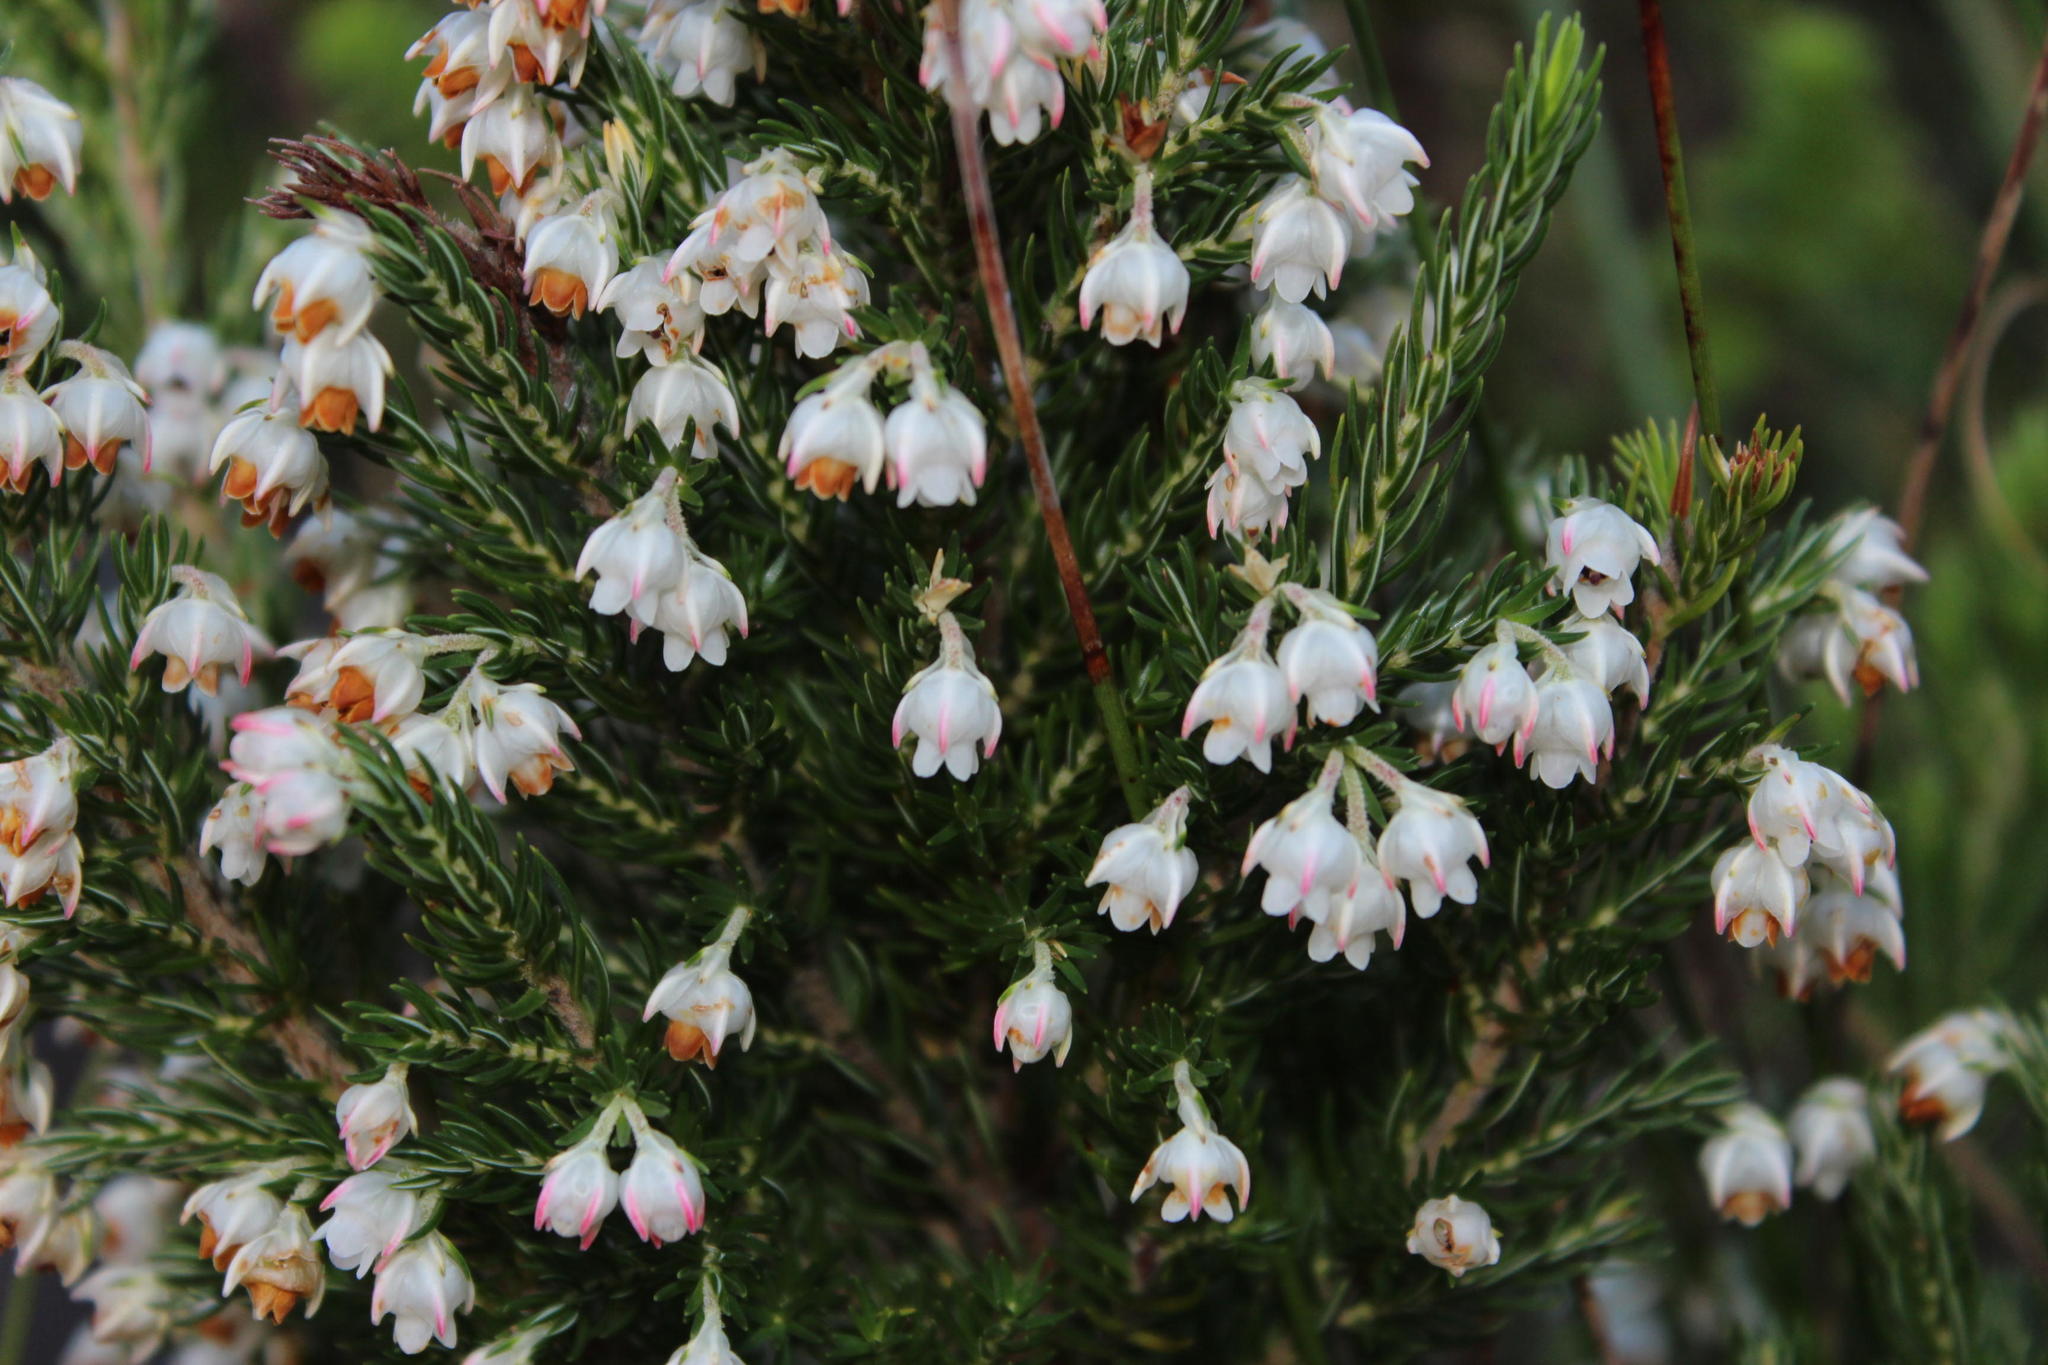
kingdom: Plantae
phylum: Tracheophyta
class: Magnoliopsida
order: Ericales
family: Ericaceae
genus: Erica
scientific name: Erica triflora
